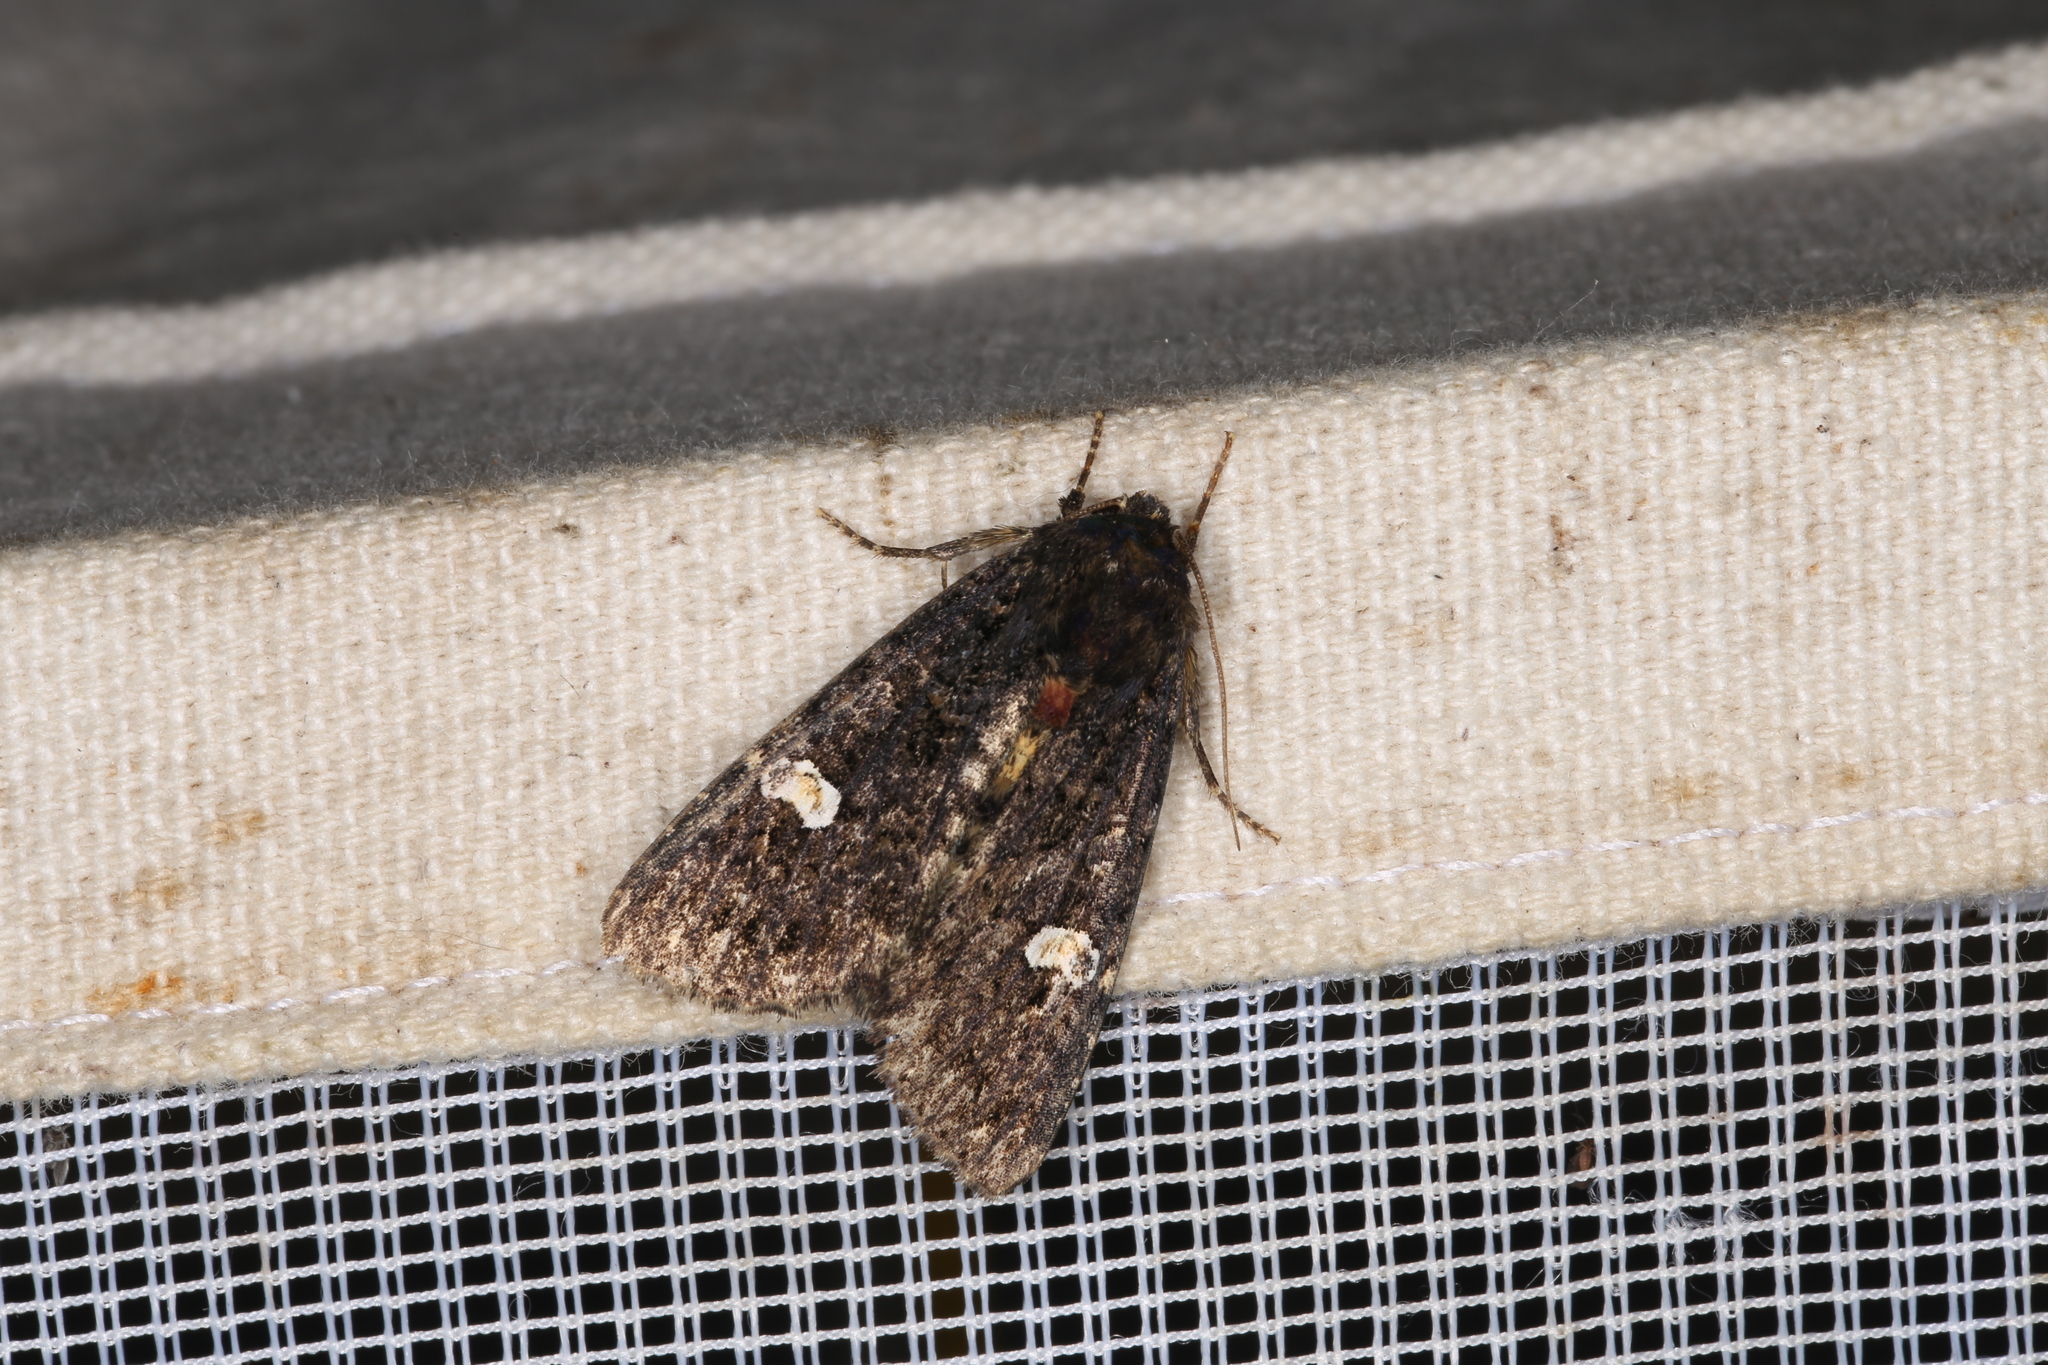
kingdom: Animalia
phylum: Arthropoda
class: Insecta
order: Lepidoptera
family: Noctuidae
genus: Melanchra
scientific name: Melanchra persicariae
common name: Dot moth
